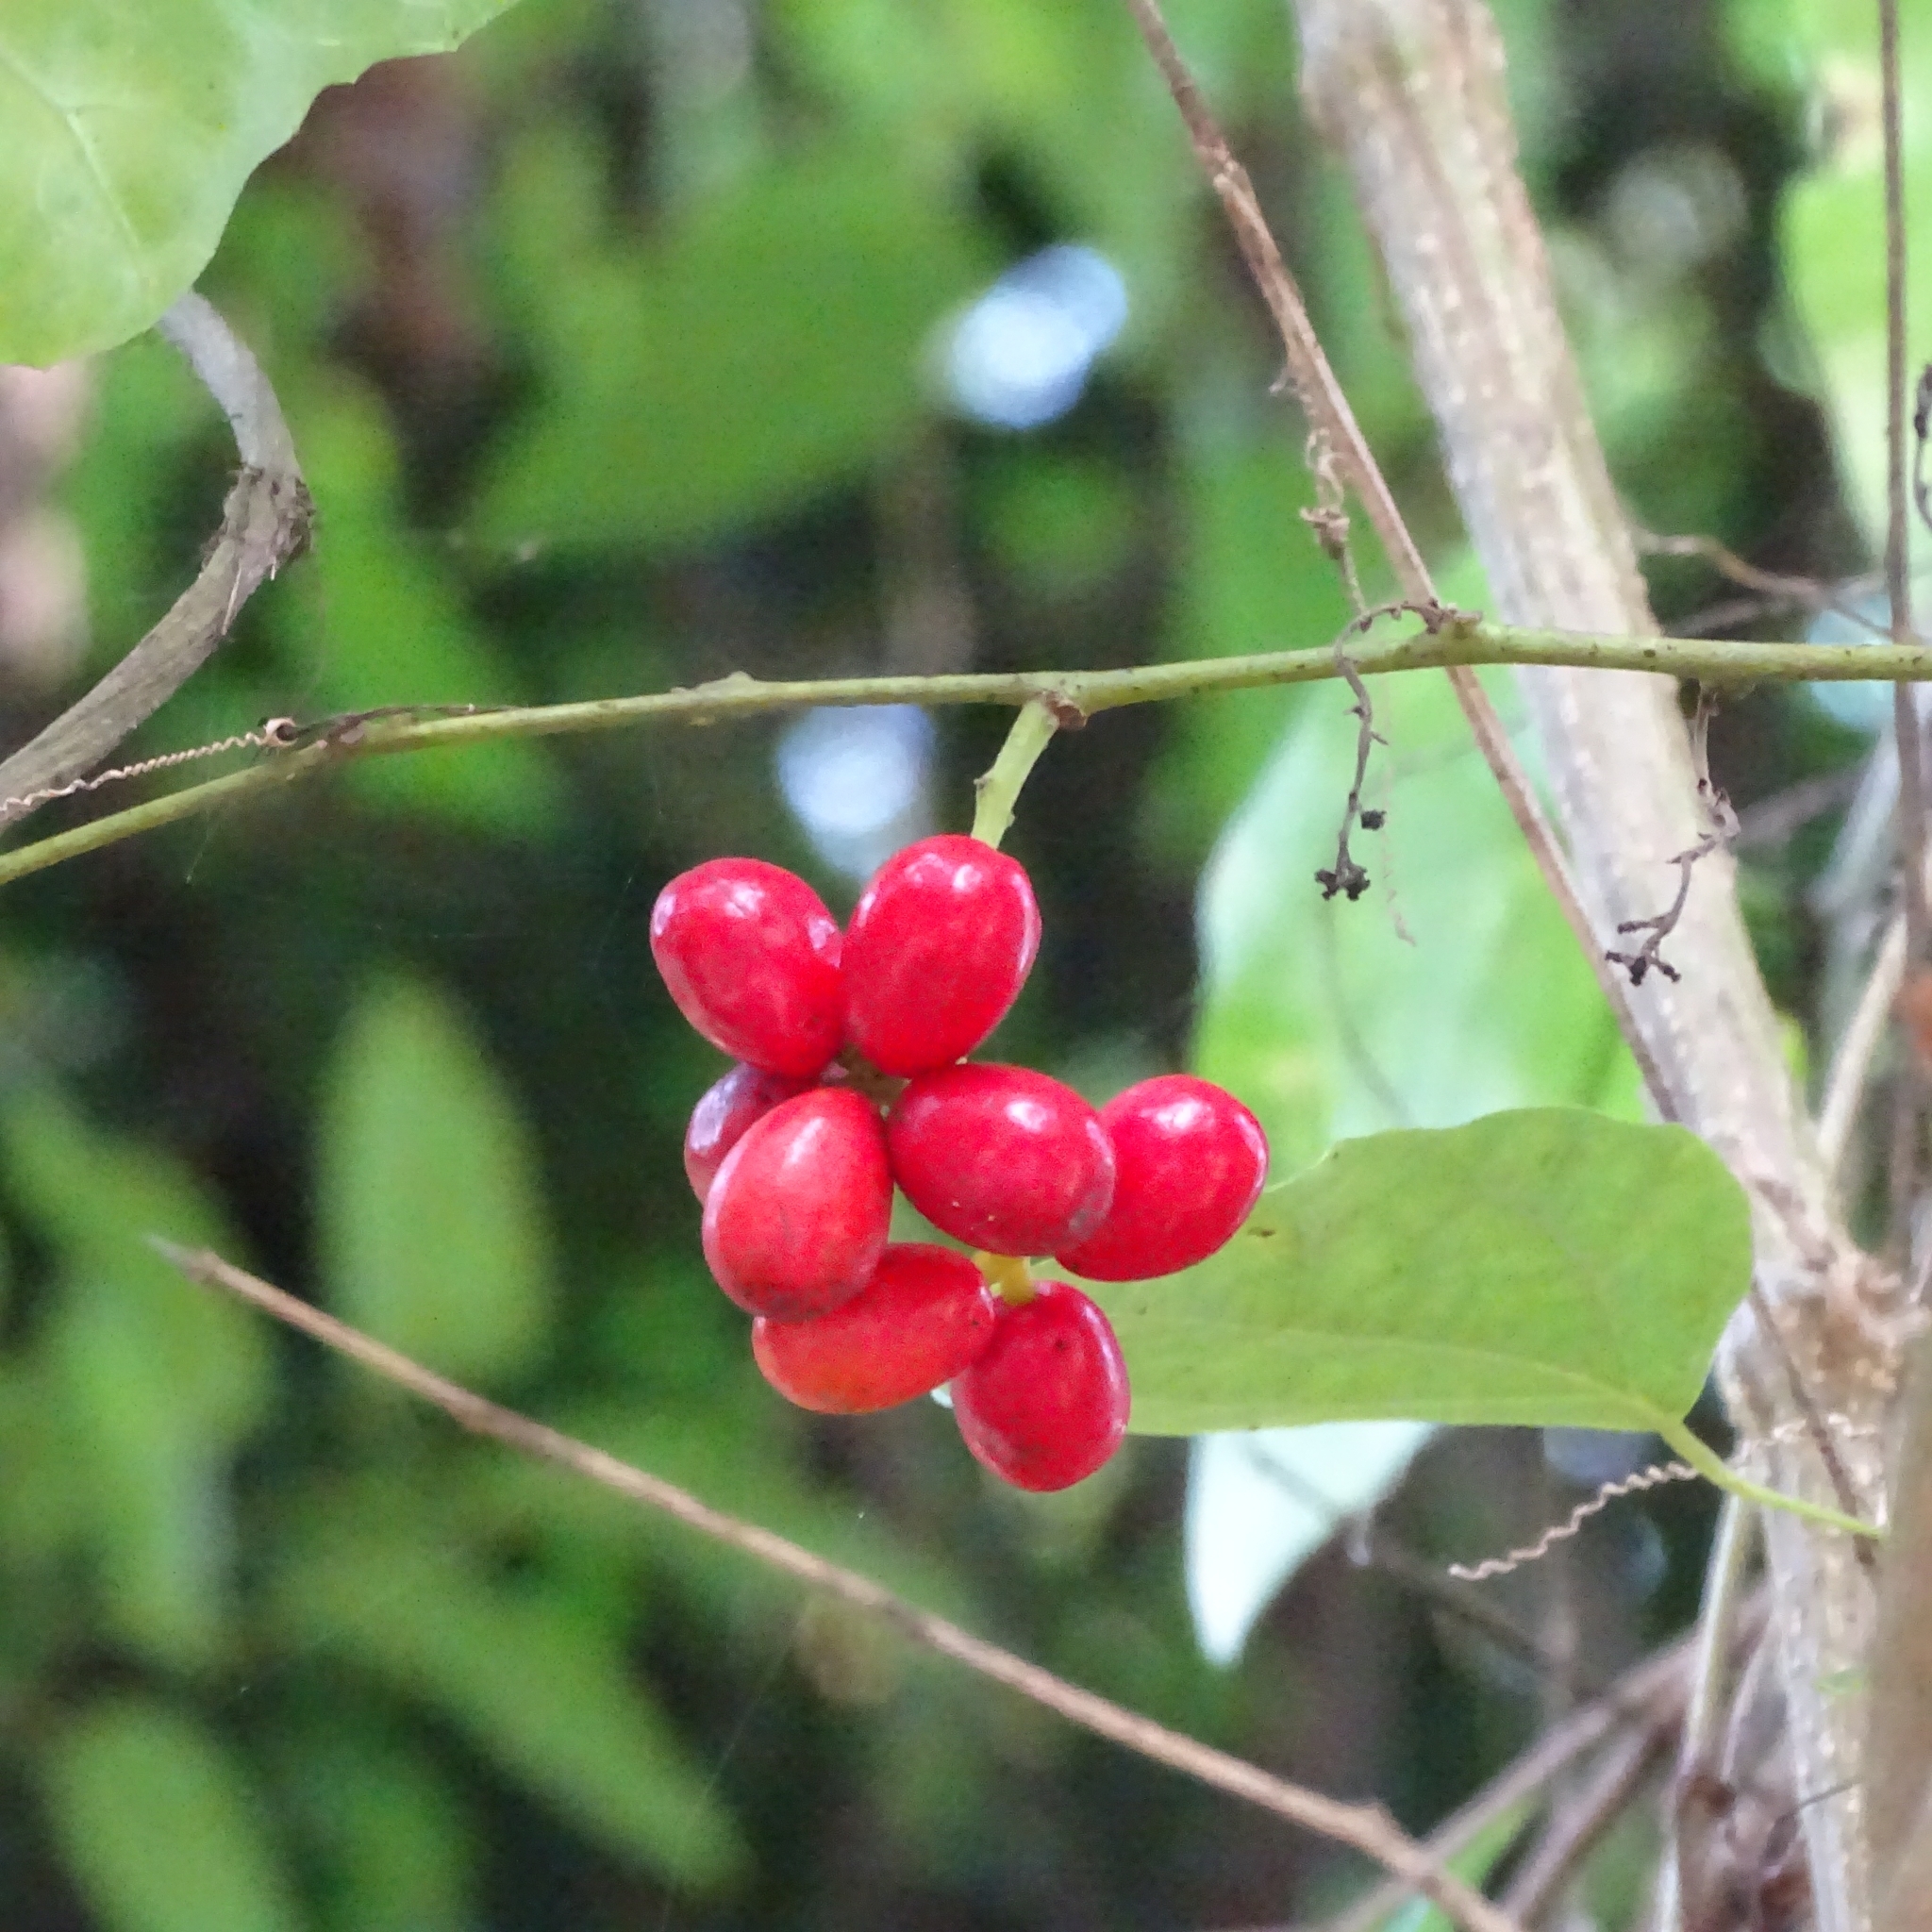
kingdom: Plantae
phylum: Tracheophyta
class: Magnoliopsida
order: Ranunculales
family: Menispermaceae
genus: Tiliacora
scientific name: Tiliacora acuminata
